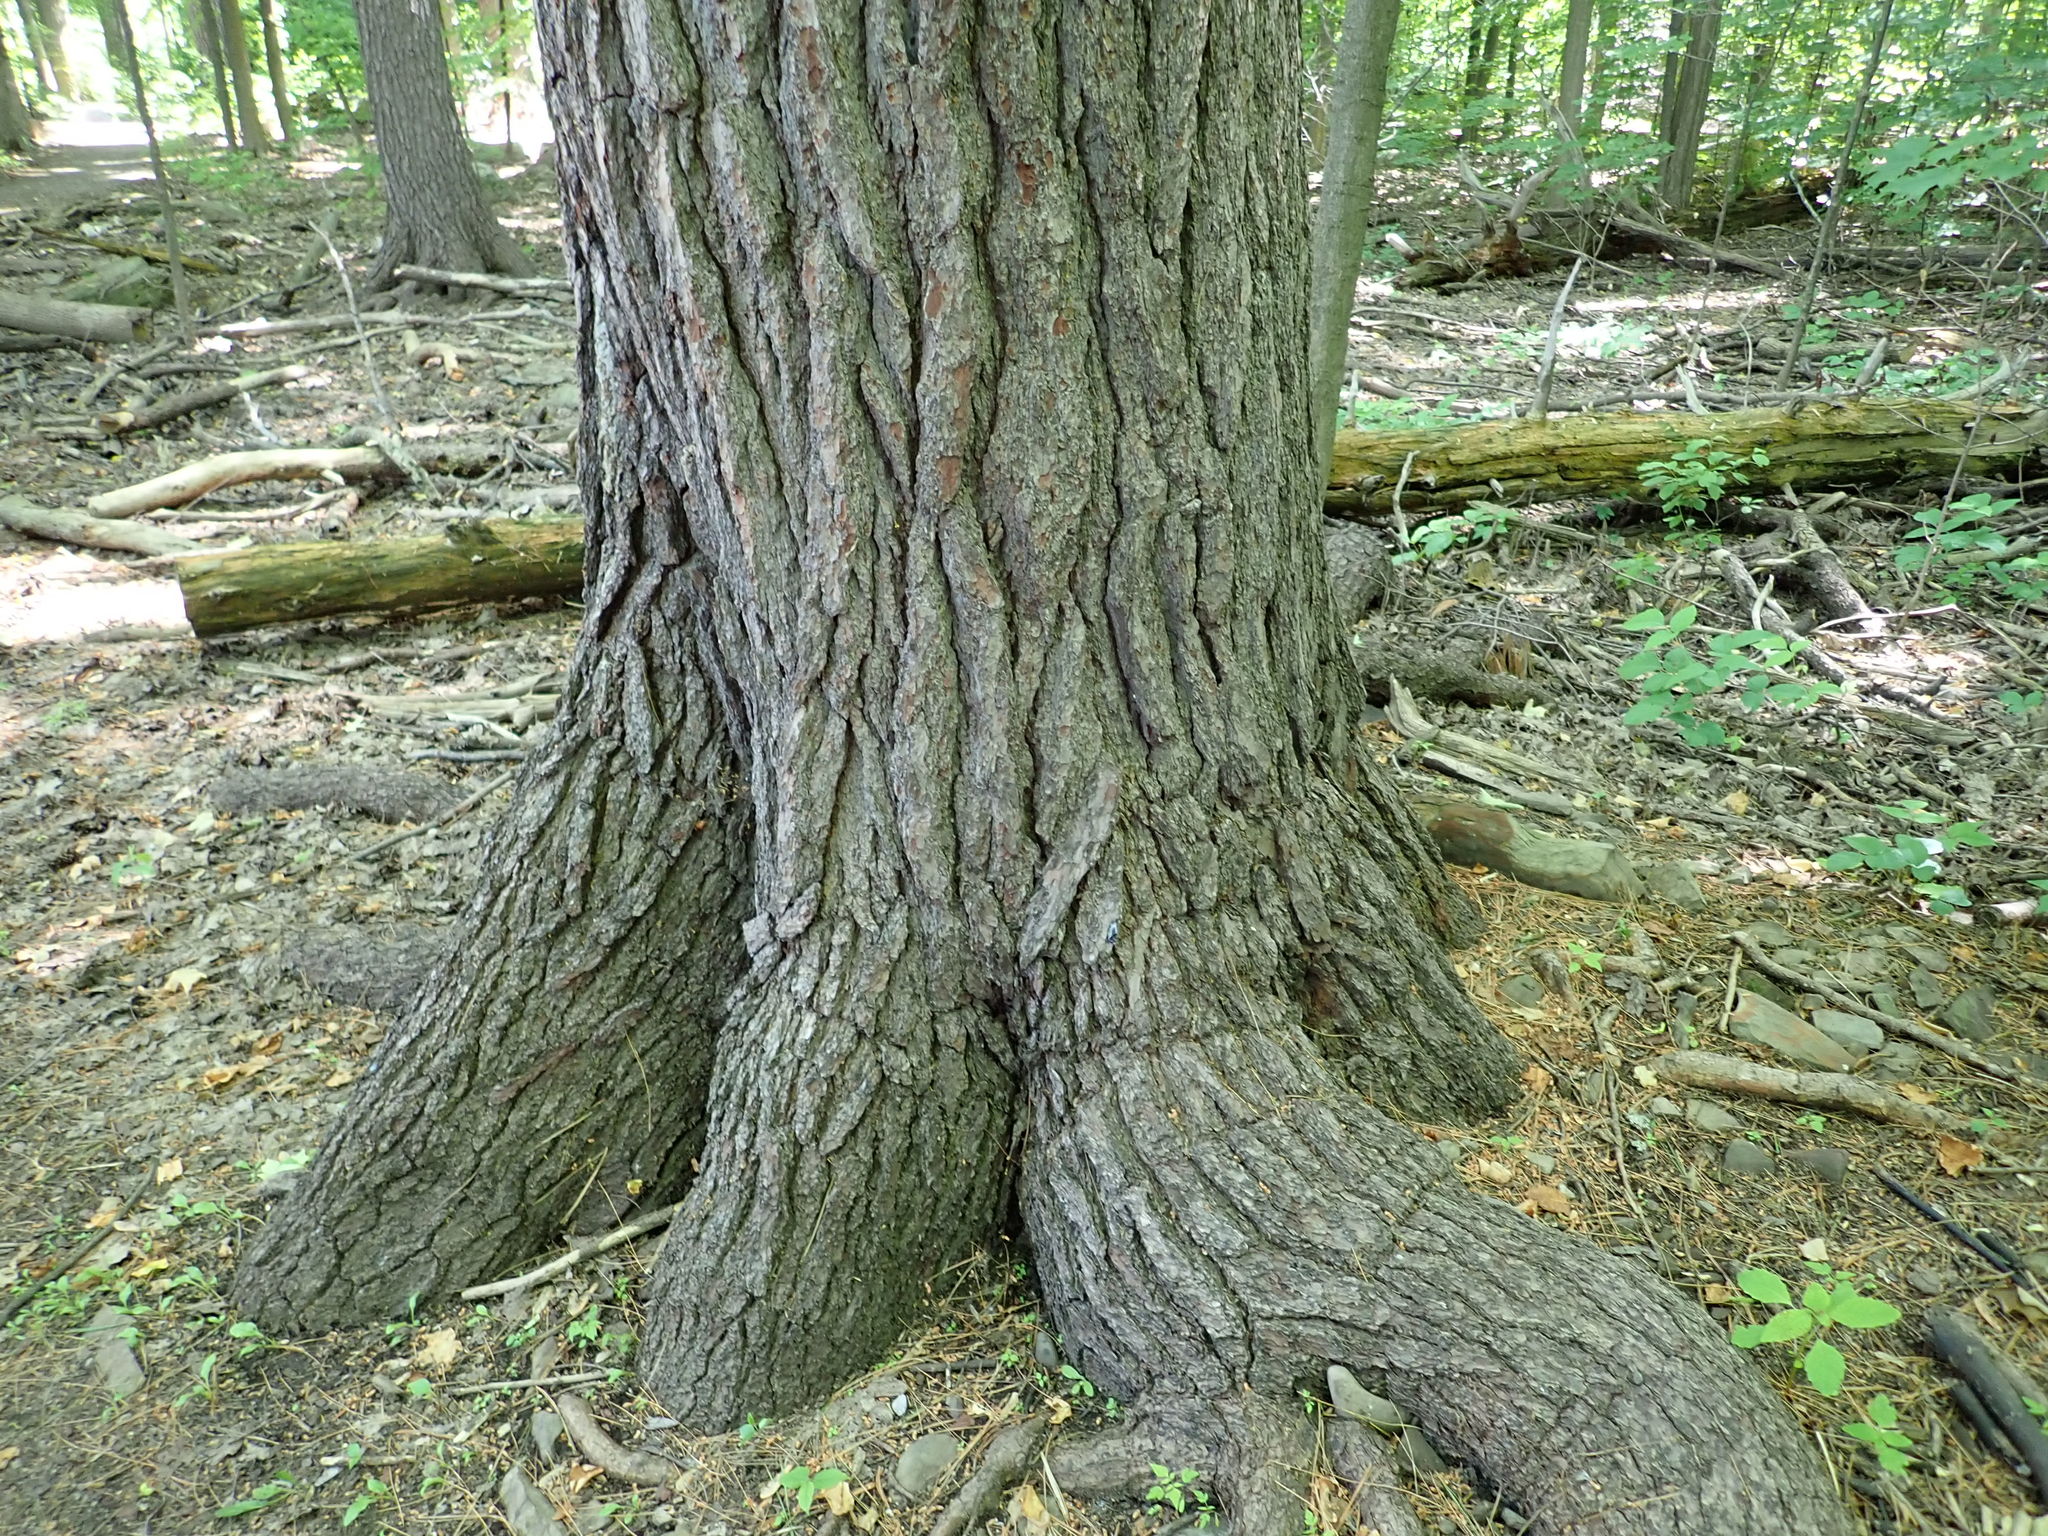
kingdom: Plantae
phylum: Tracheophyta
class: Pinopsida
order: Pinales
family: Pinaceae
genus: Pinus
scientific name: Pinus strobus
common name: Weymouth pine
